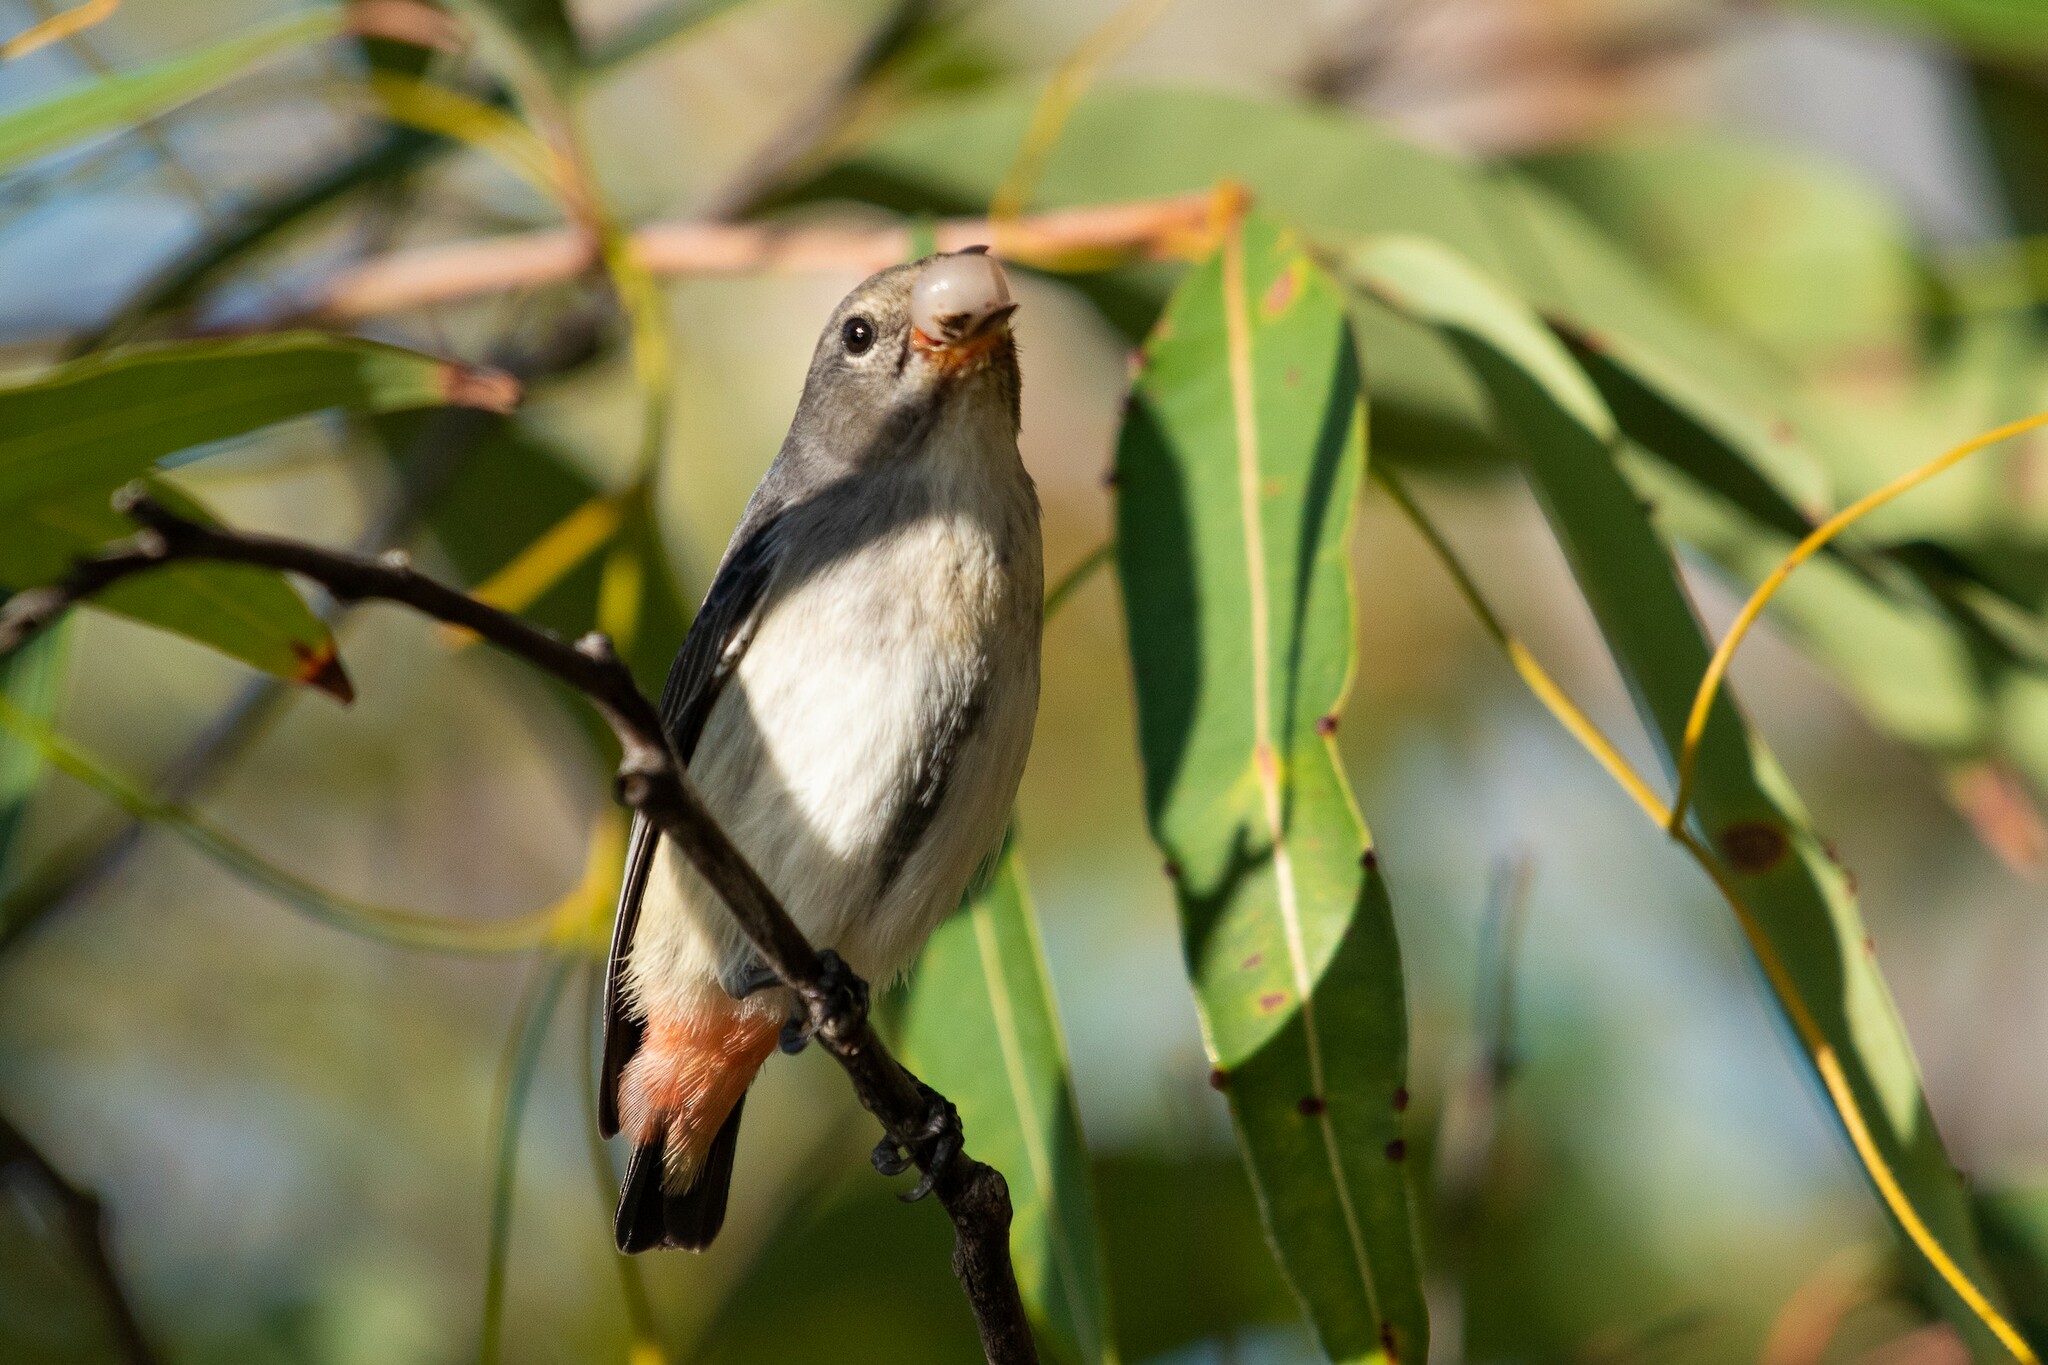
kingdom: Animalia
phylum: Chordata
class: Aves
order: Passeriformes
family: Dicaeidae
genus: Dicaeum
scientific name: Dicaeum hirundinaceum
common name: Mistletoebird
